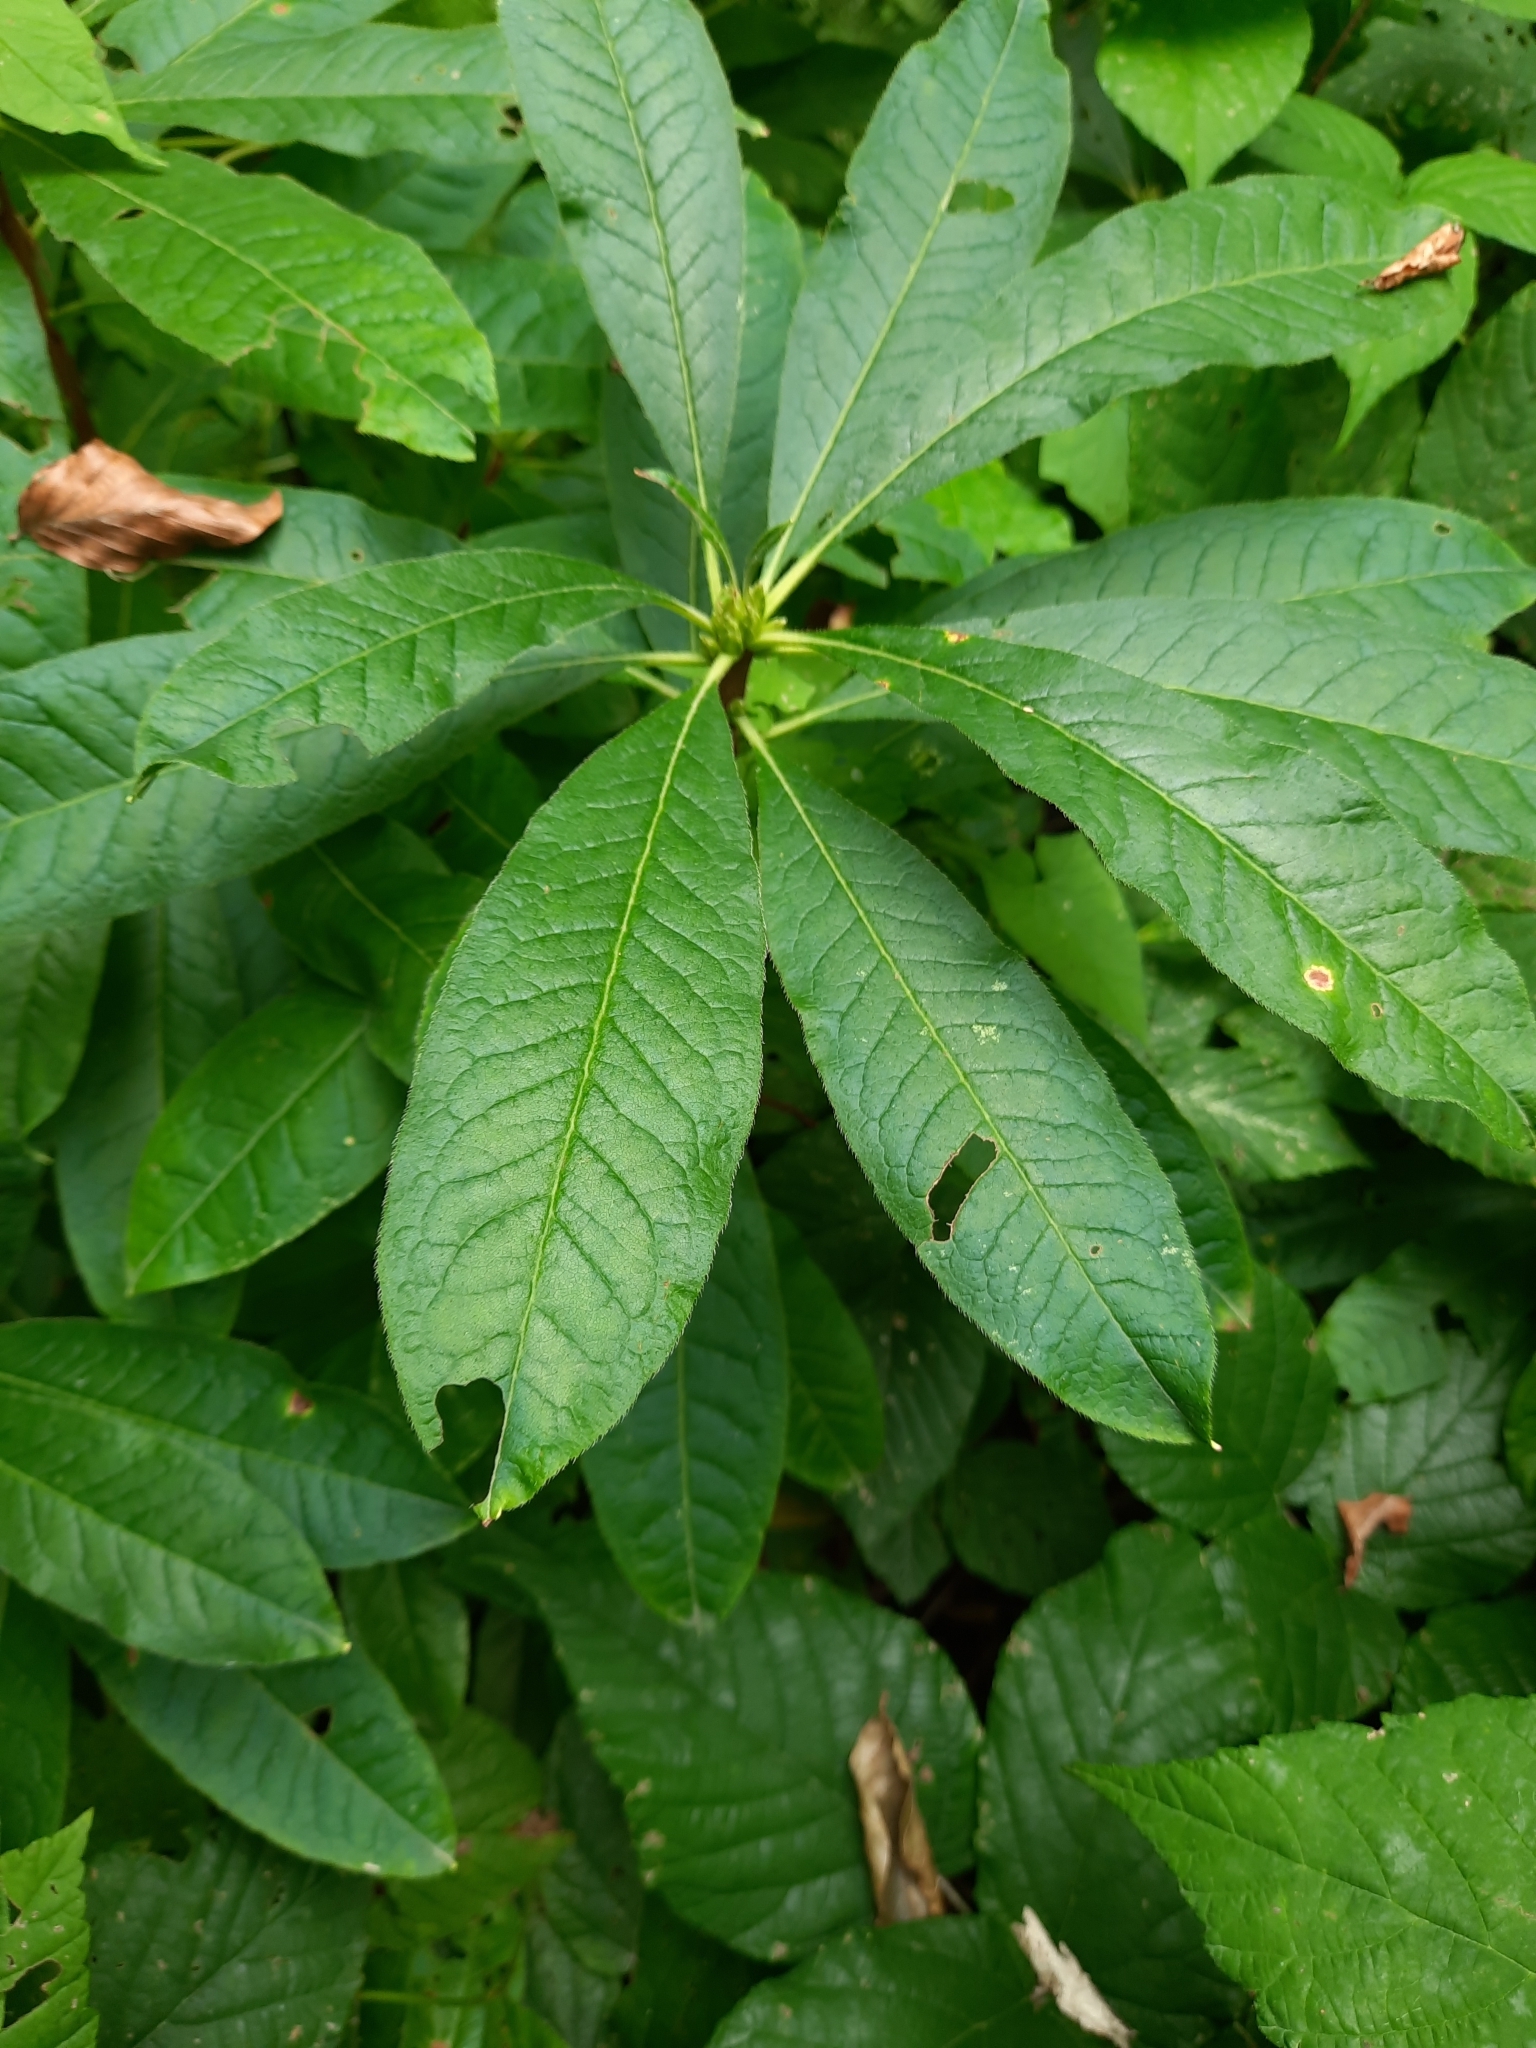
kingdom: Plantae
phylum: Tracheophyta
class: Magnoliopsida
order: Ericales
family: Ericaceae
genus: Rhododendron
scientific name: Rhododendron luteum
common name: Yellow azalea
